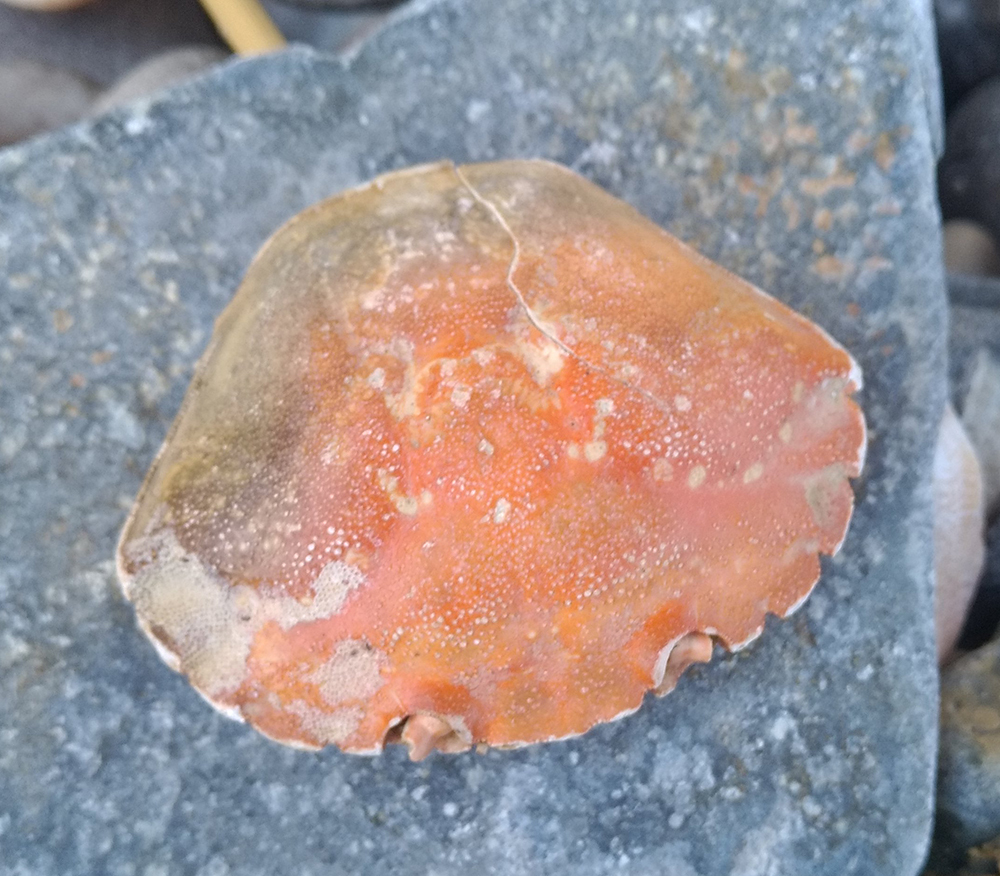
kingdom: Animalia
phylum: Arthropoda
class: Malacostraca
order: Decapoda
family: Carcinidae
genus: Carcinus
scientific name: Carcinus maenas
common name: European green crab
